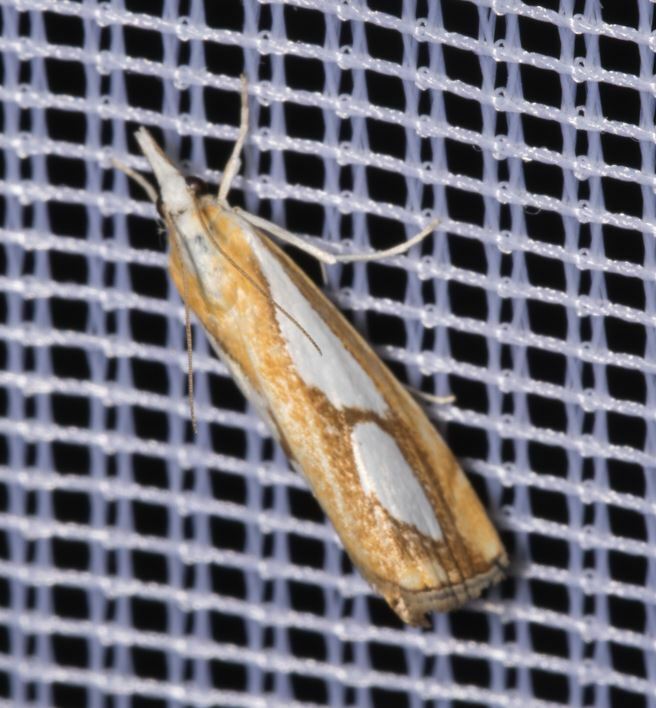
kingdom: Animalia
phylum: Arthropoda
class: Insecta
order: Lepidoptera
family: Crambidae
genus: Catoptria
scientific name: Catoptria pinella
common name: Pearl grass-veneer
